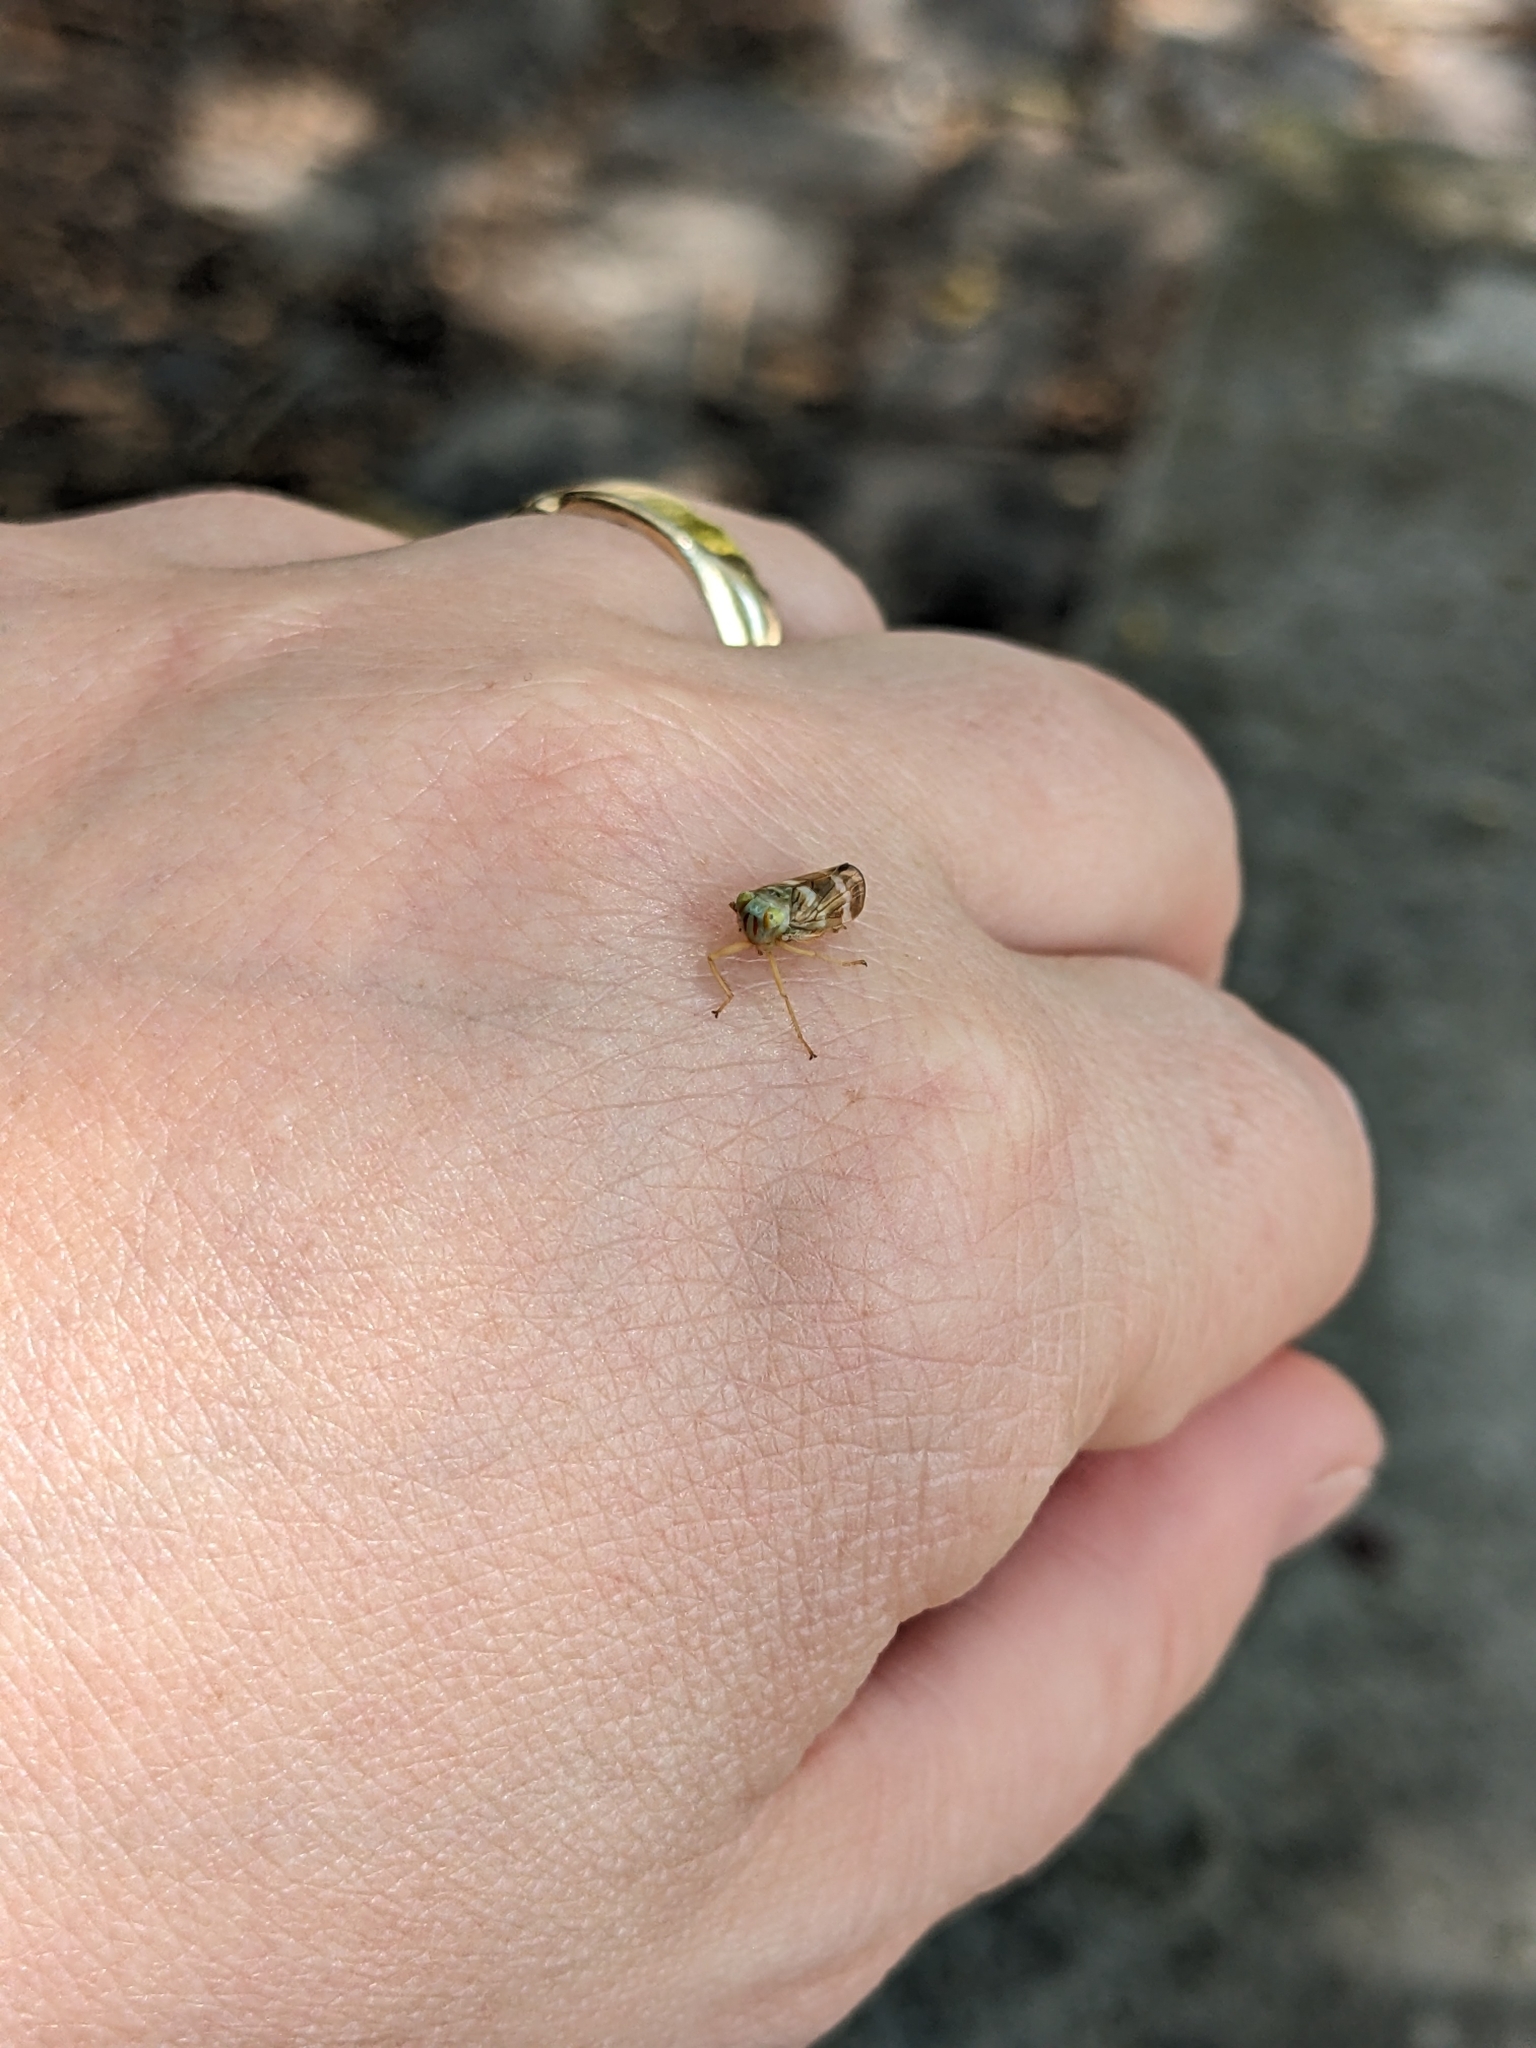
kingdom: Animalia
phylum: Arthropoda
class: Insecta
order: Hemiptera
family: Cicadellidae
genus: Jikradia
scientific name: Jikradia olitoria
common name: Coppery leafhopper
